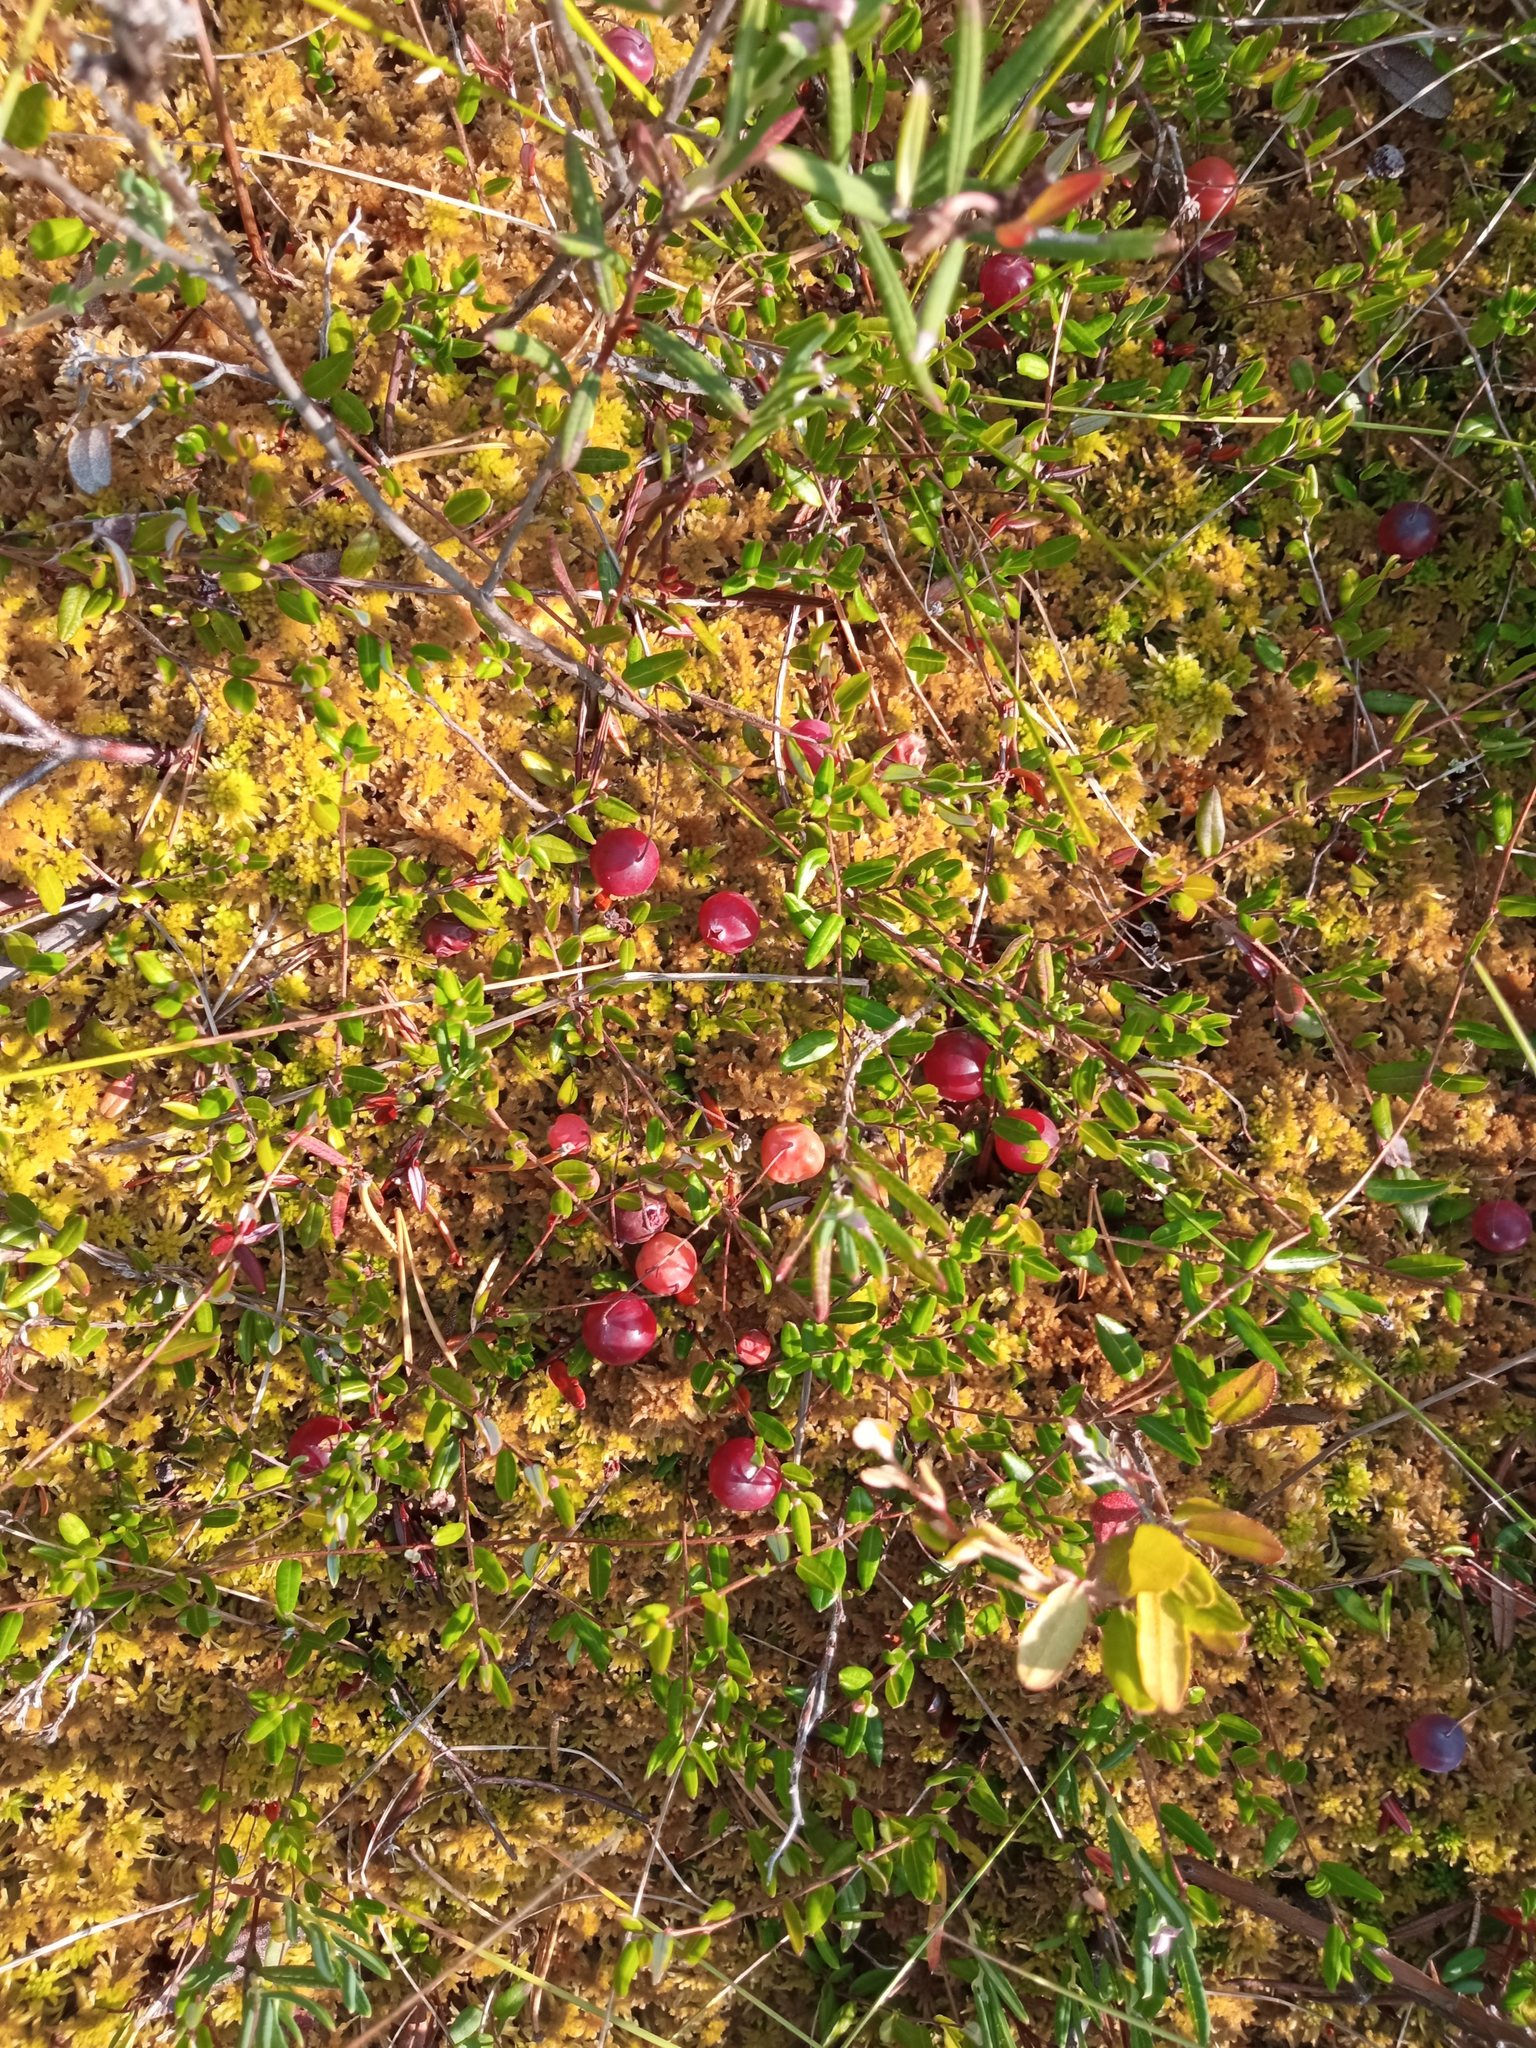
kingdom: Plantae
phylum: Tracheophyta
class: Magnoliopsida
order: Ericales
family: Ericaceae
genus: Vaccinium
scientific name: Vaccinium oxycoccos
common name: Cranberry
